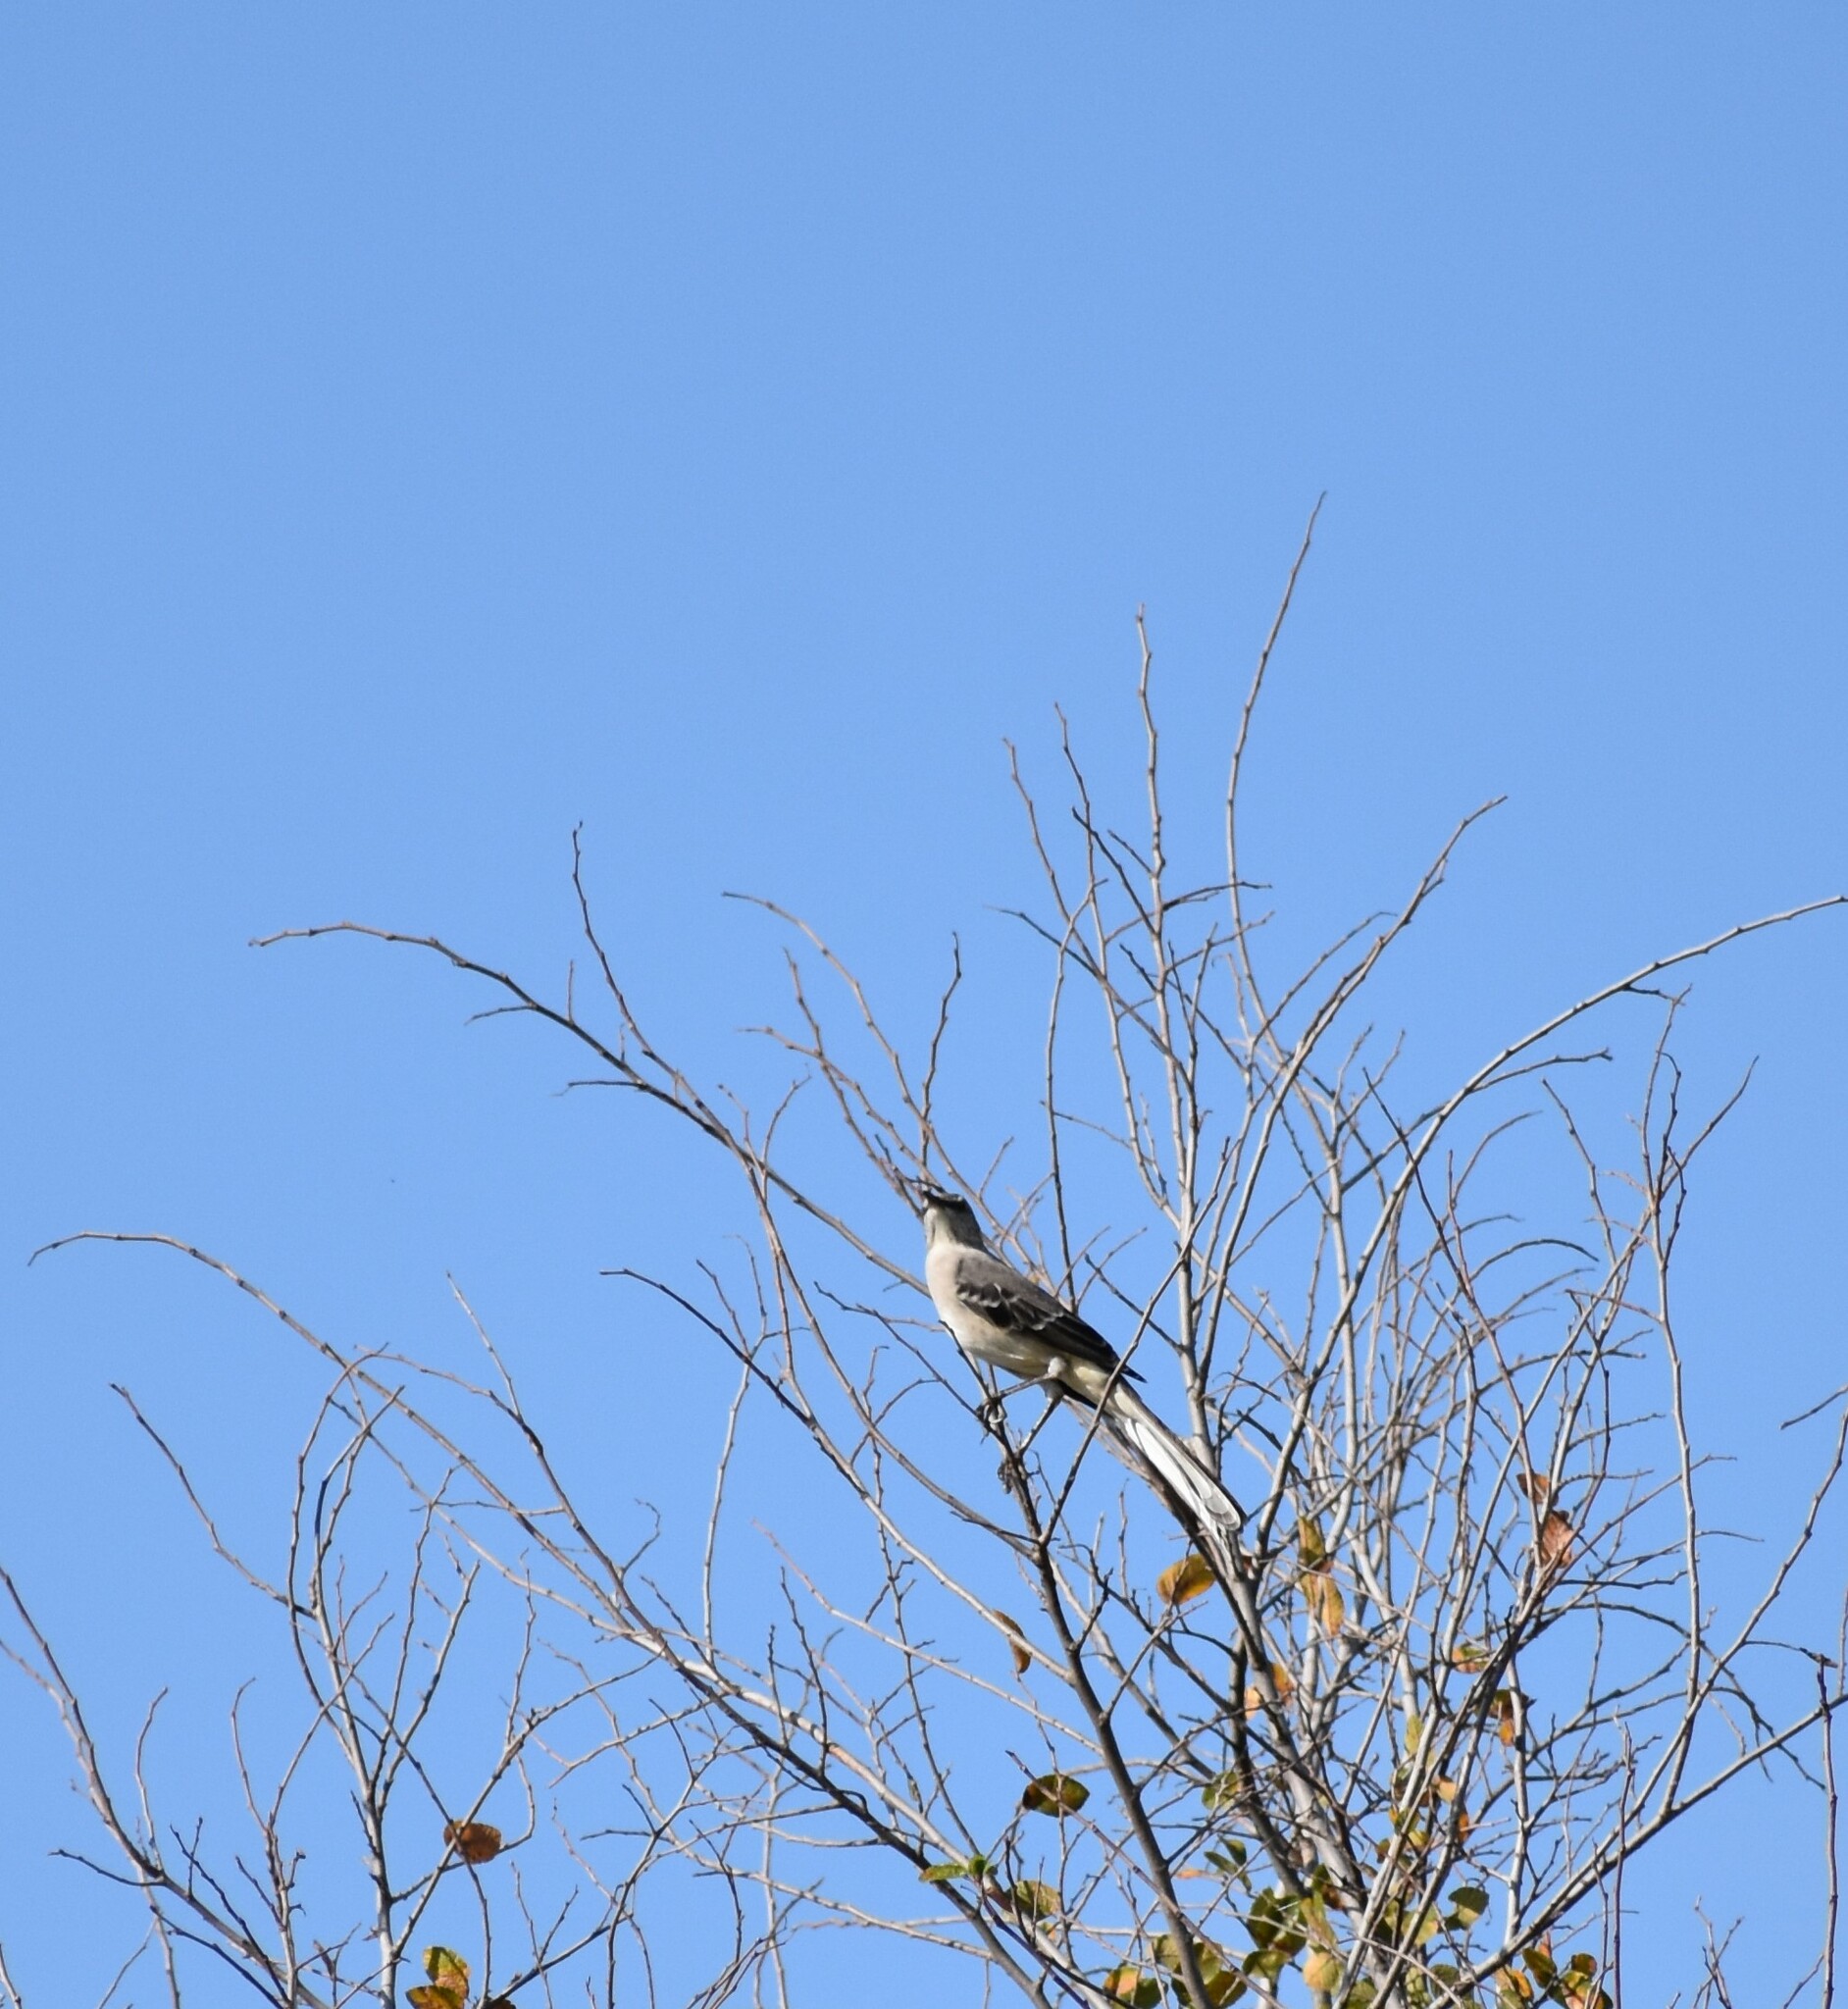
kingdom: Animalia
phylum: Chordata
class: Aves
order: Passeriformes
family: Mimidae
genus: Mimus
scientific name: Mimus polyglottos
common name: Northern mockingbird
